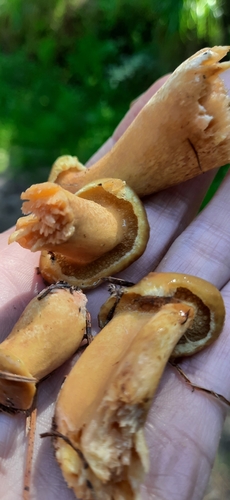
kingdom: Fungi
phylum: Basidiomycota
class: Agaricomycetes
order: Boletales
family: Suillaceae
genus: Suillus
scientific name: Suillus plorans
